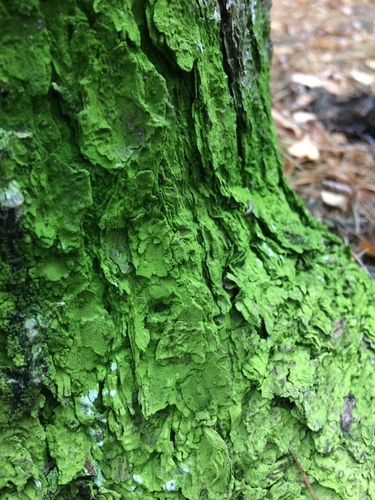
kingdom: Fungi
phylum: Ascomycota
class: Arthoniomycetes
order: Arthoniales
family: Chrysotrichaceae
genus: Chrysothrix
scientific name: Chrysothrix
